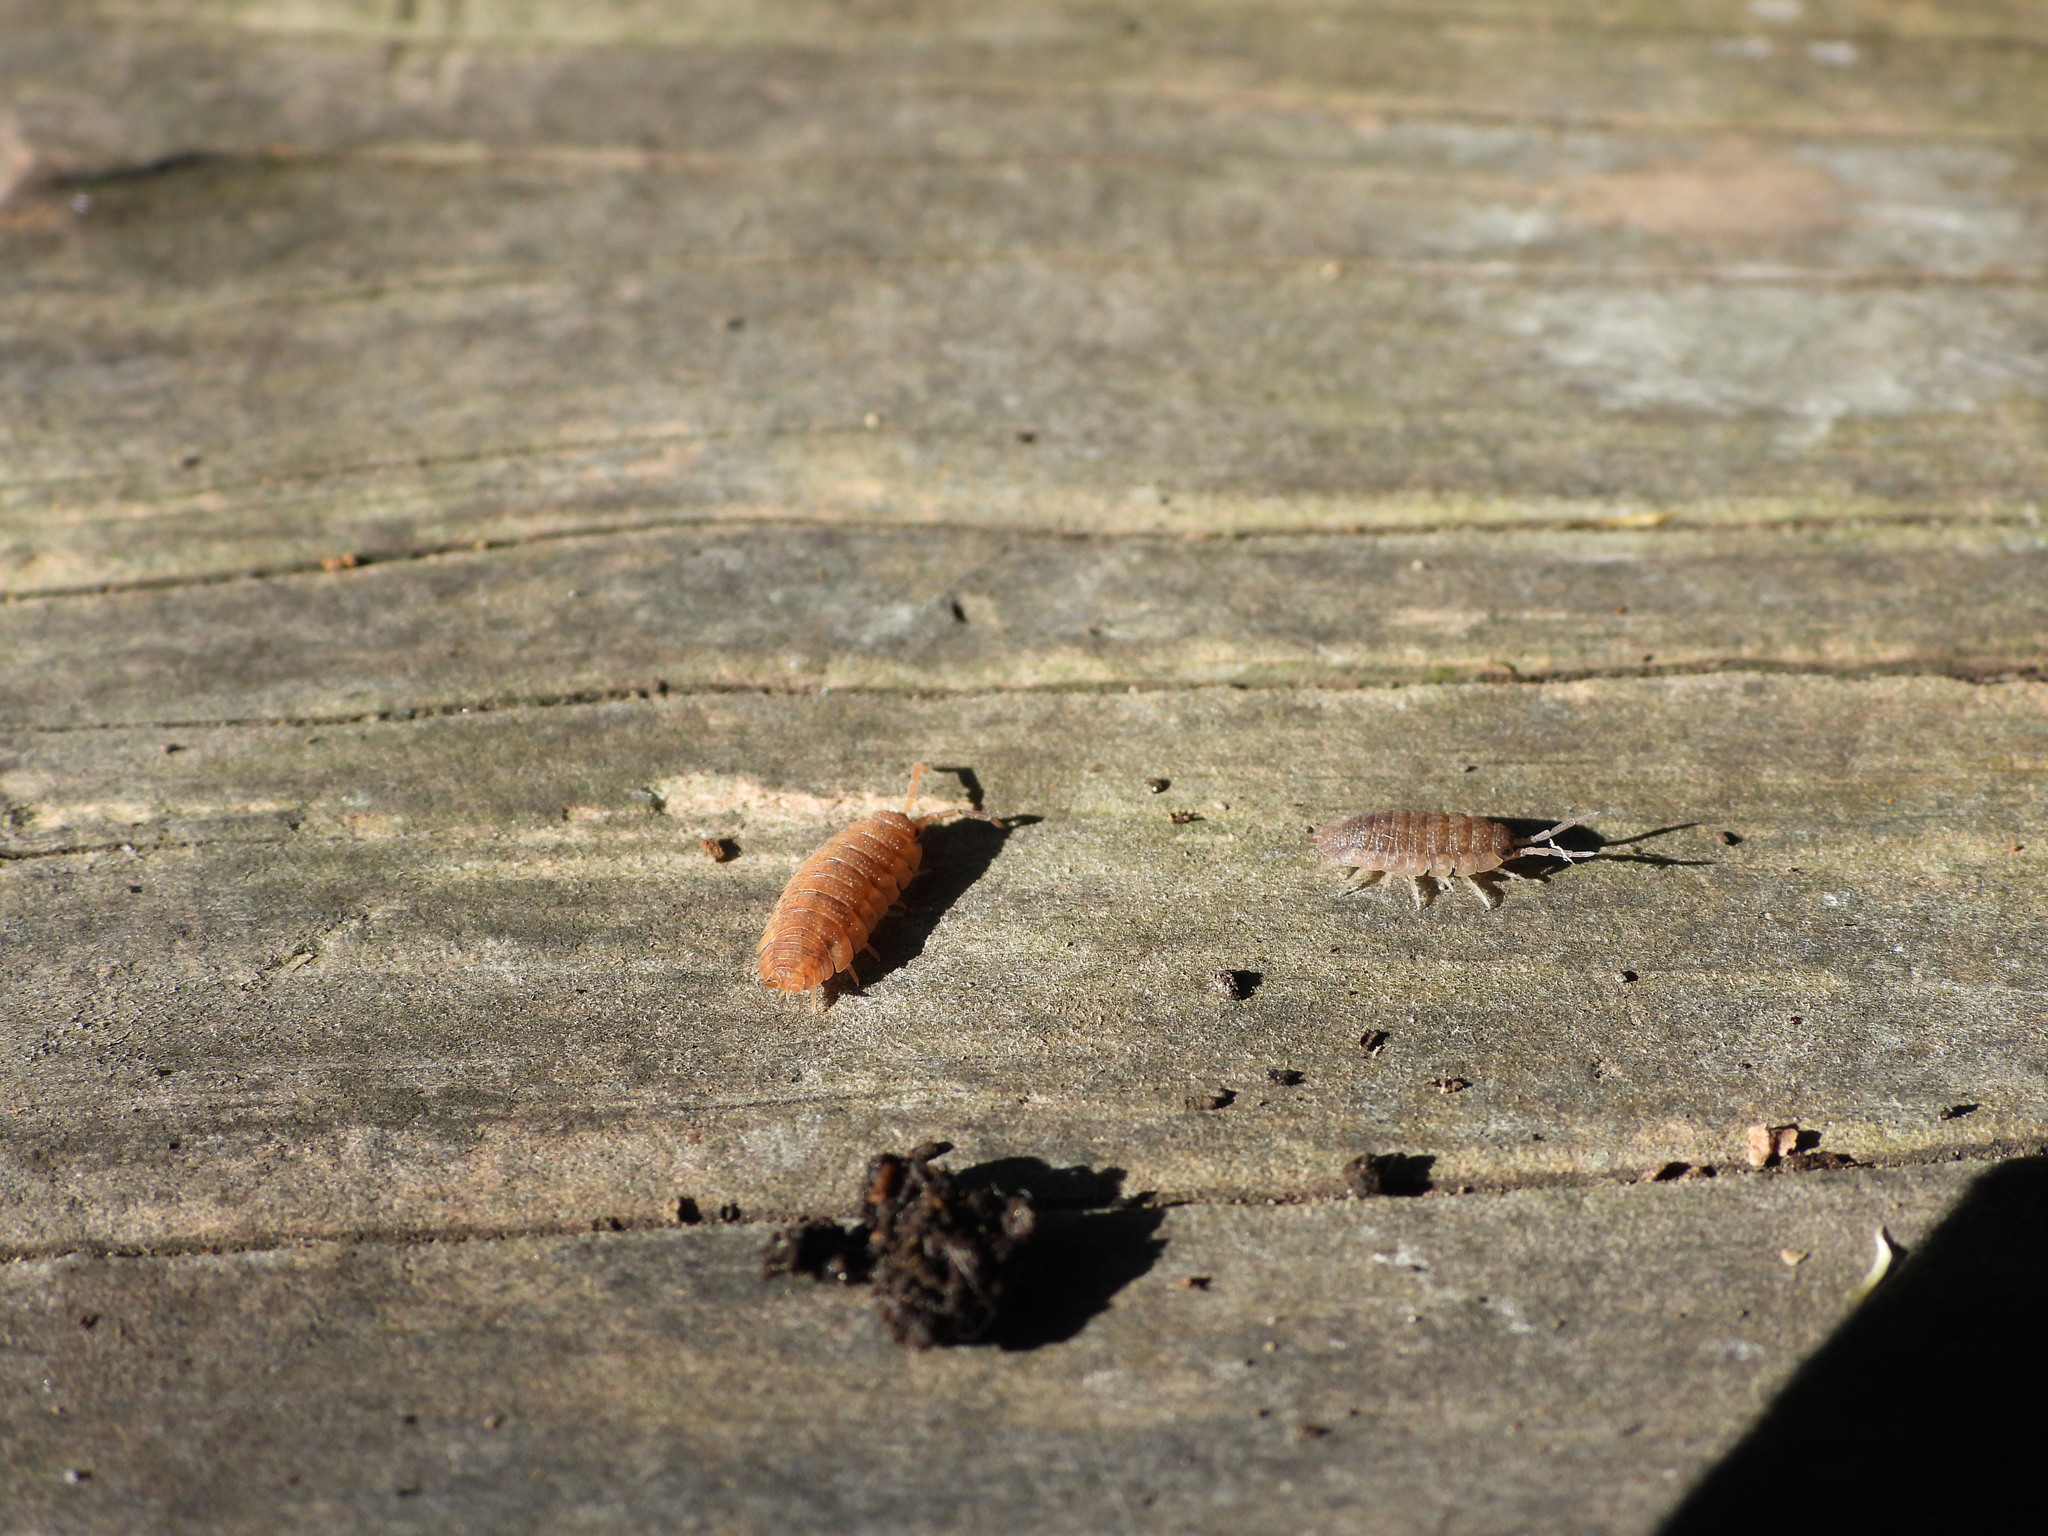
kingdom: Animalia
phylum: Arthropoda
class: Malacostraca
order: Isopoda
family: Porcellionidae
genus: Porcellio
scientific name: Porcellio scaber
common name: Common rough woodlouse
